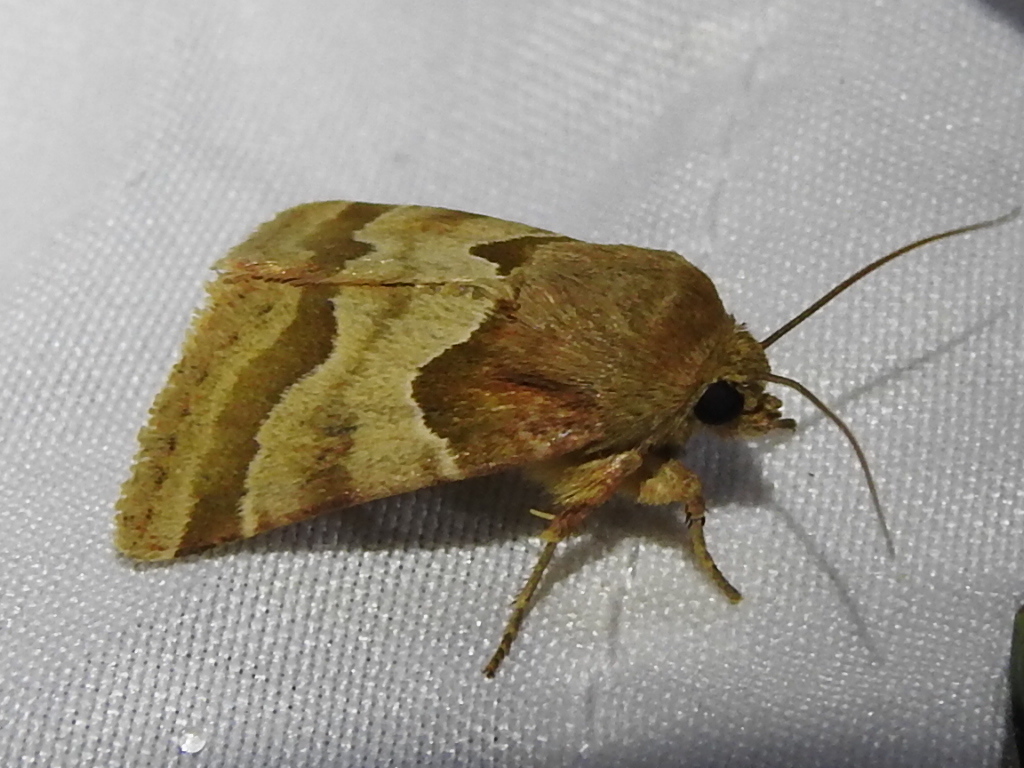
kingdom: Animalia
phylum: Arthropoda
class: Insecta
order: Lepidoptera
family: Noctuidae
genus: Schinia
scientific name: Schinia jaguarina
